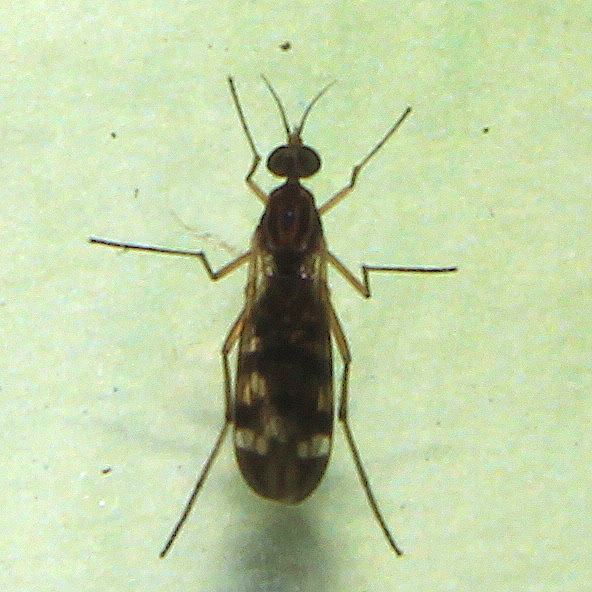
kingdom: Animalia
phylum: Arthropoda
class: Insecta
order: Diptera
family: Anisopodidae
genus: Sylvicola
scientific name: Sylvicola notatus
